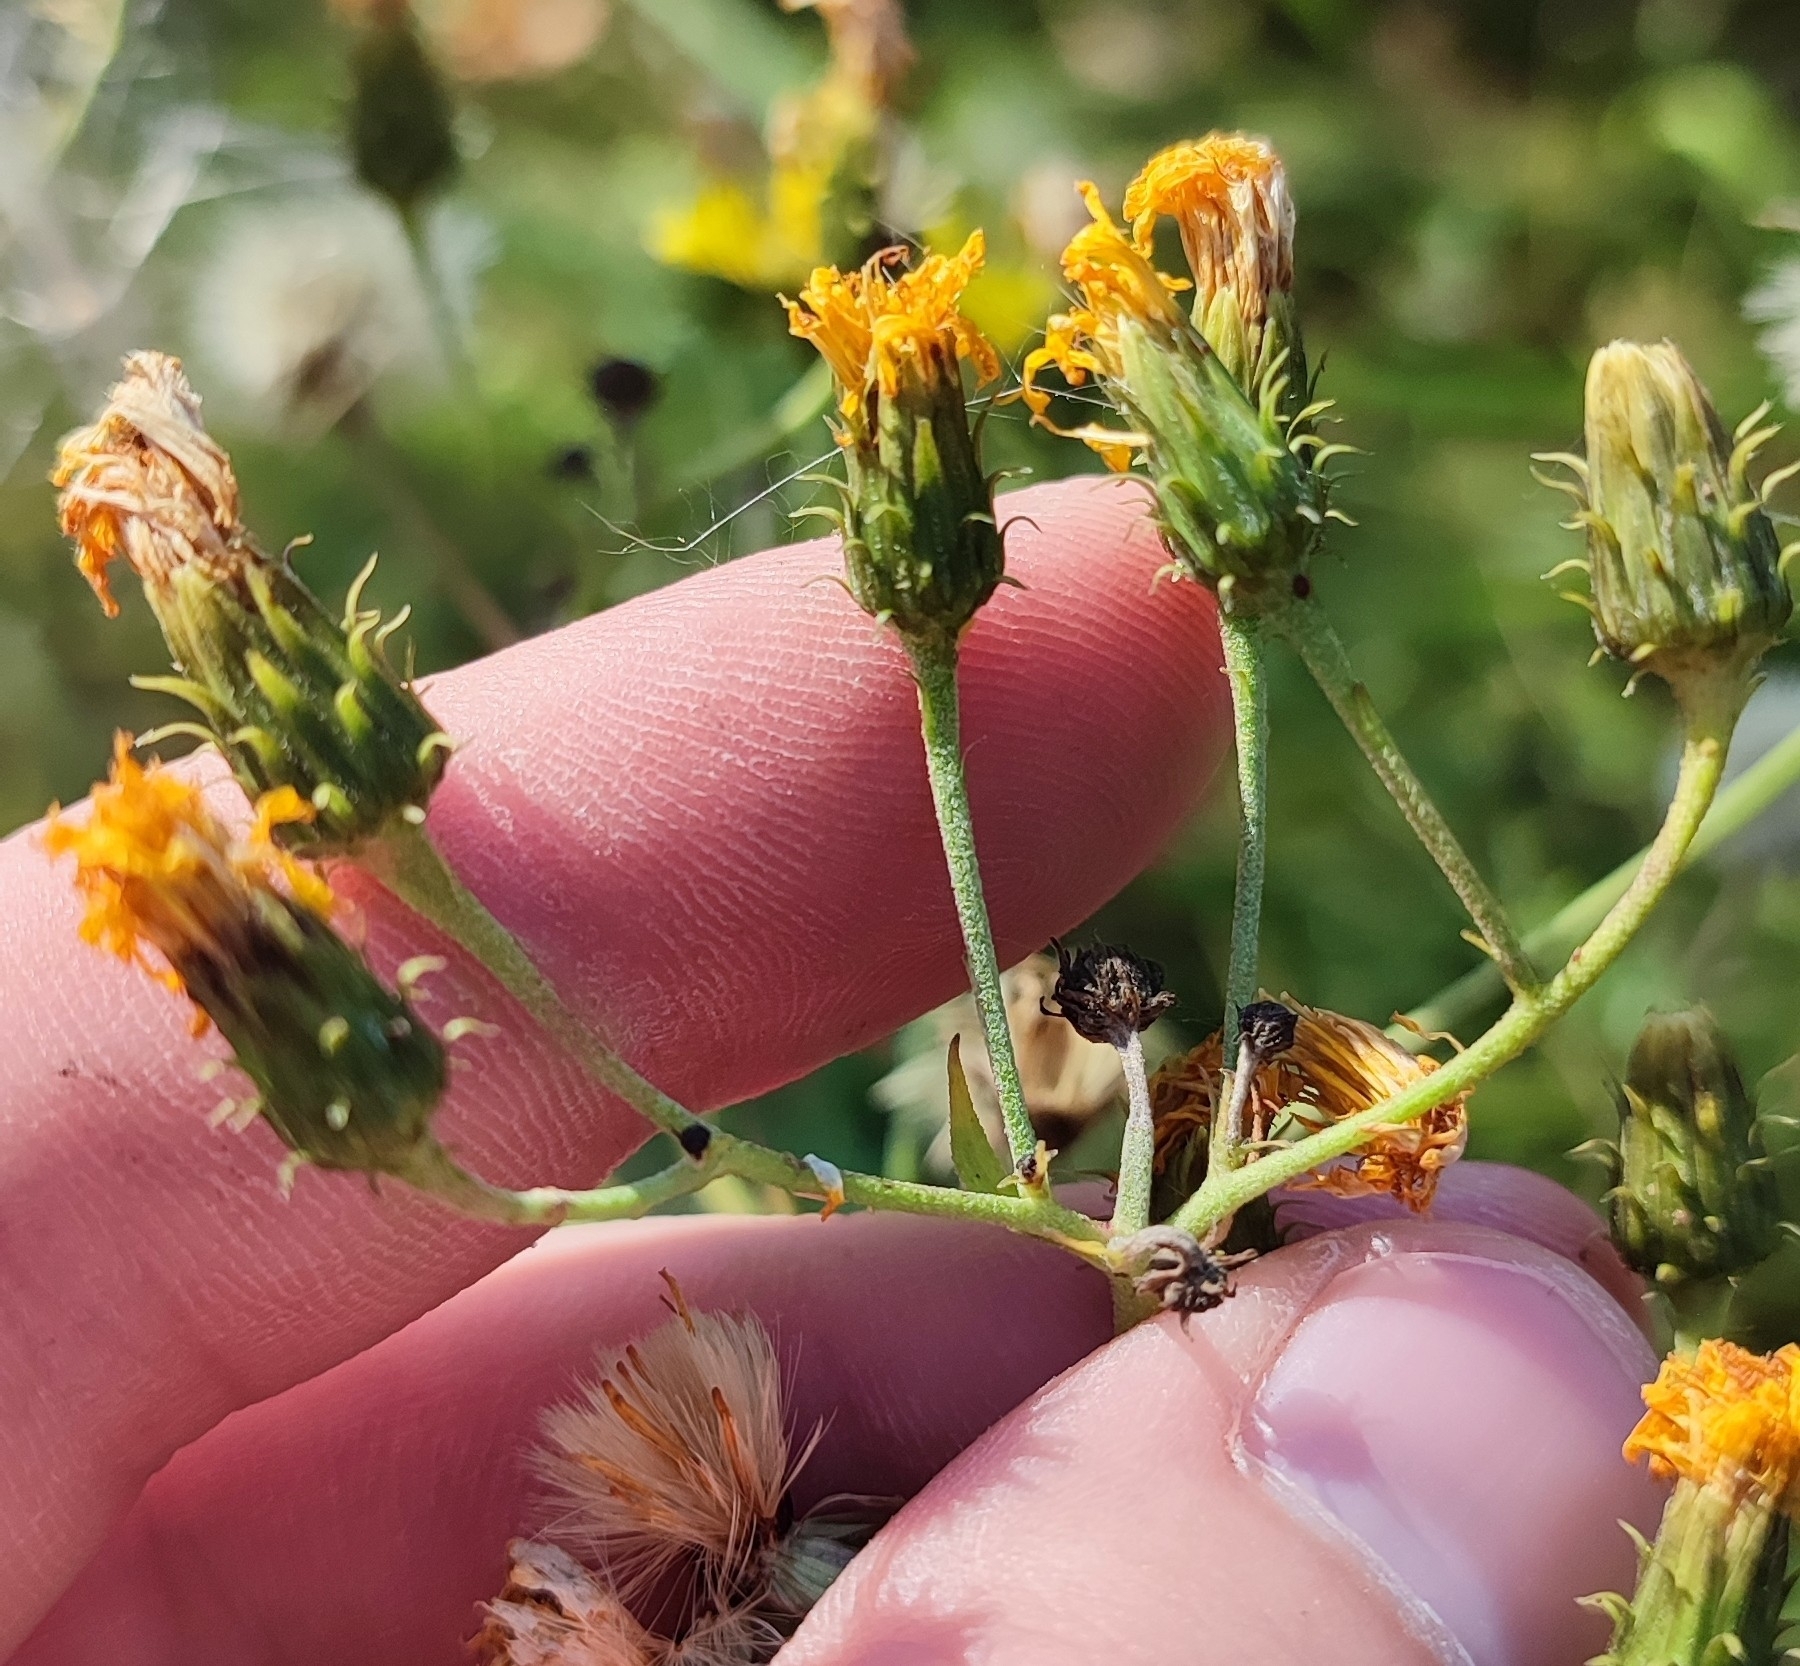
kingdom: Plantae
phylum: Tracheophyta
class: Magnoliopsida
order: Asterales
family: Asteraceae
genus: Hieracium
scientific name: Hieracium umbellatum
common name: Northern hawkweed
